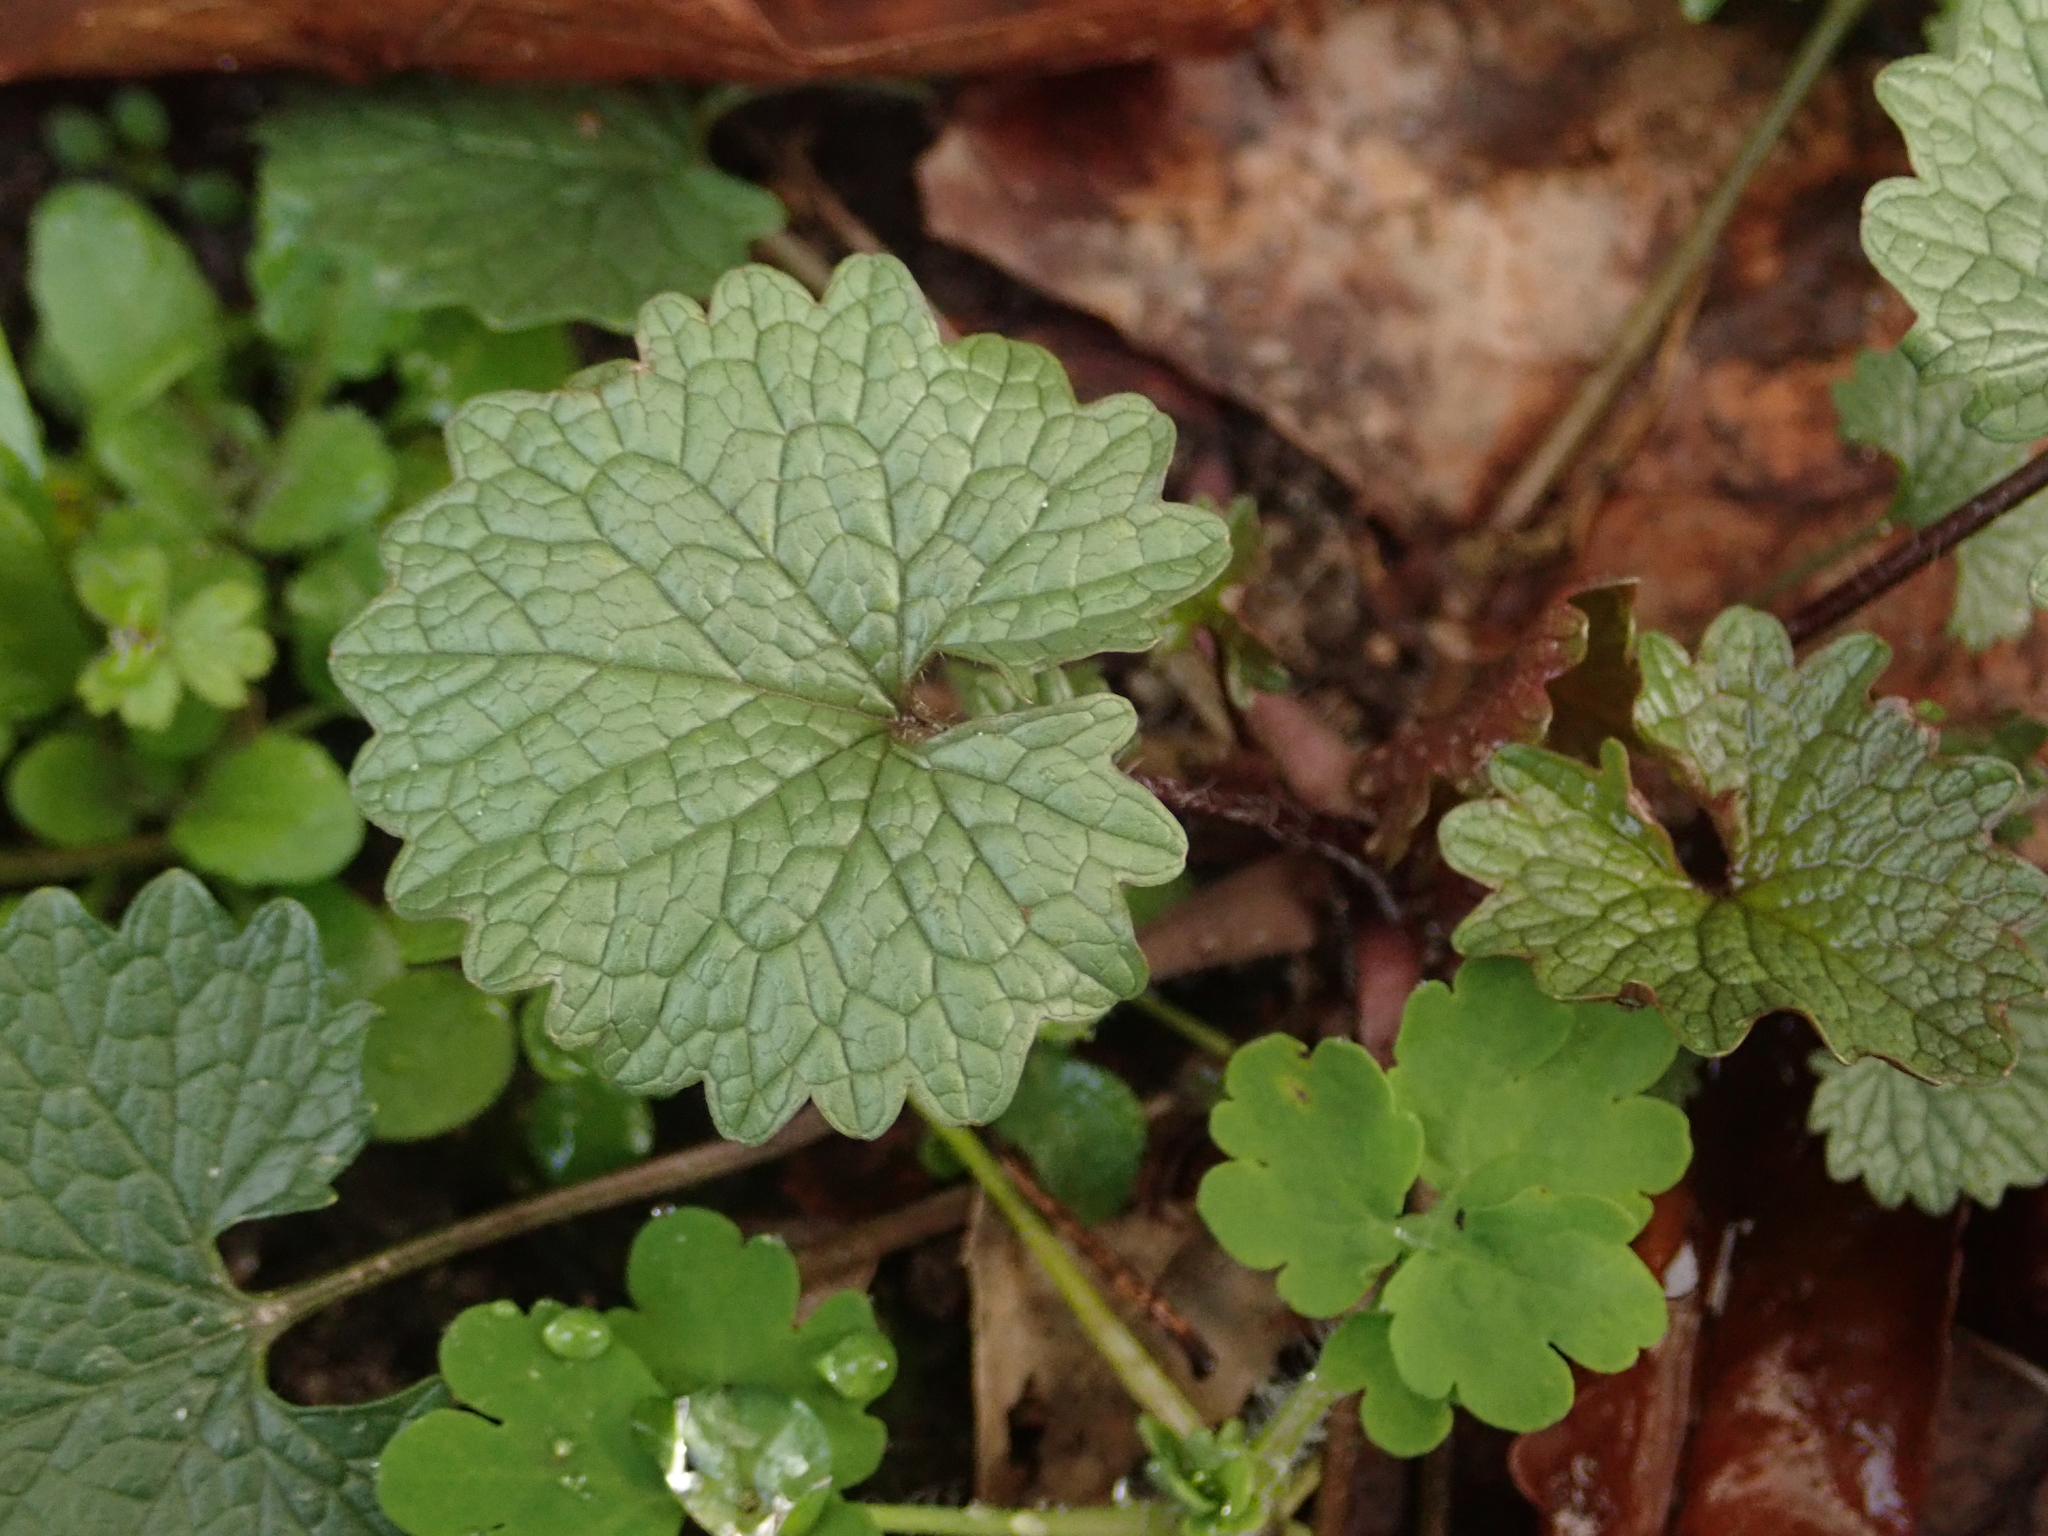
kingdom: Plantae
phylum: Tracheophyta
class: Magnoliopsida
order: Brassicales
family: Brassicaceae
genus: Alliaria
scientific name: Alliaria petiolata
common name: Garlic mustard
